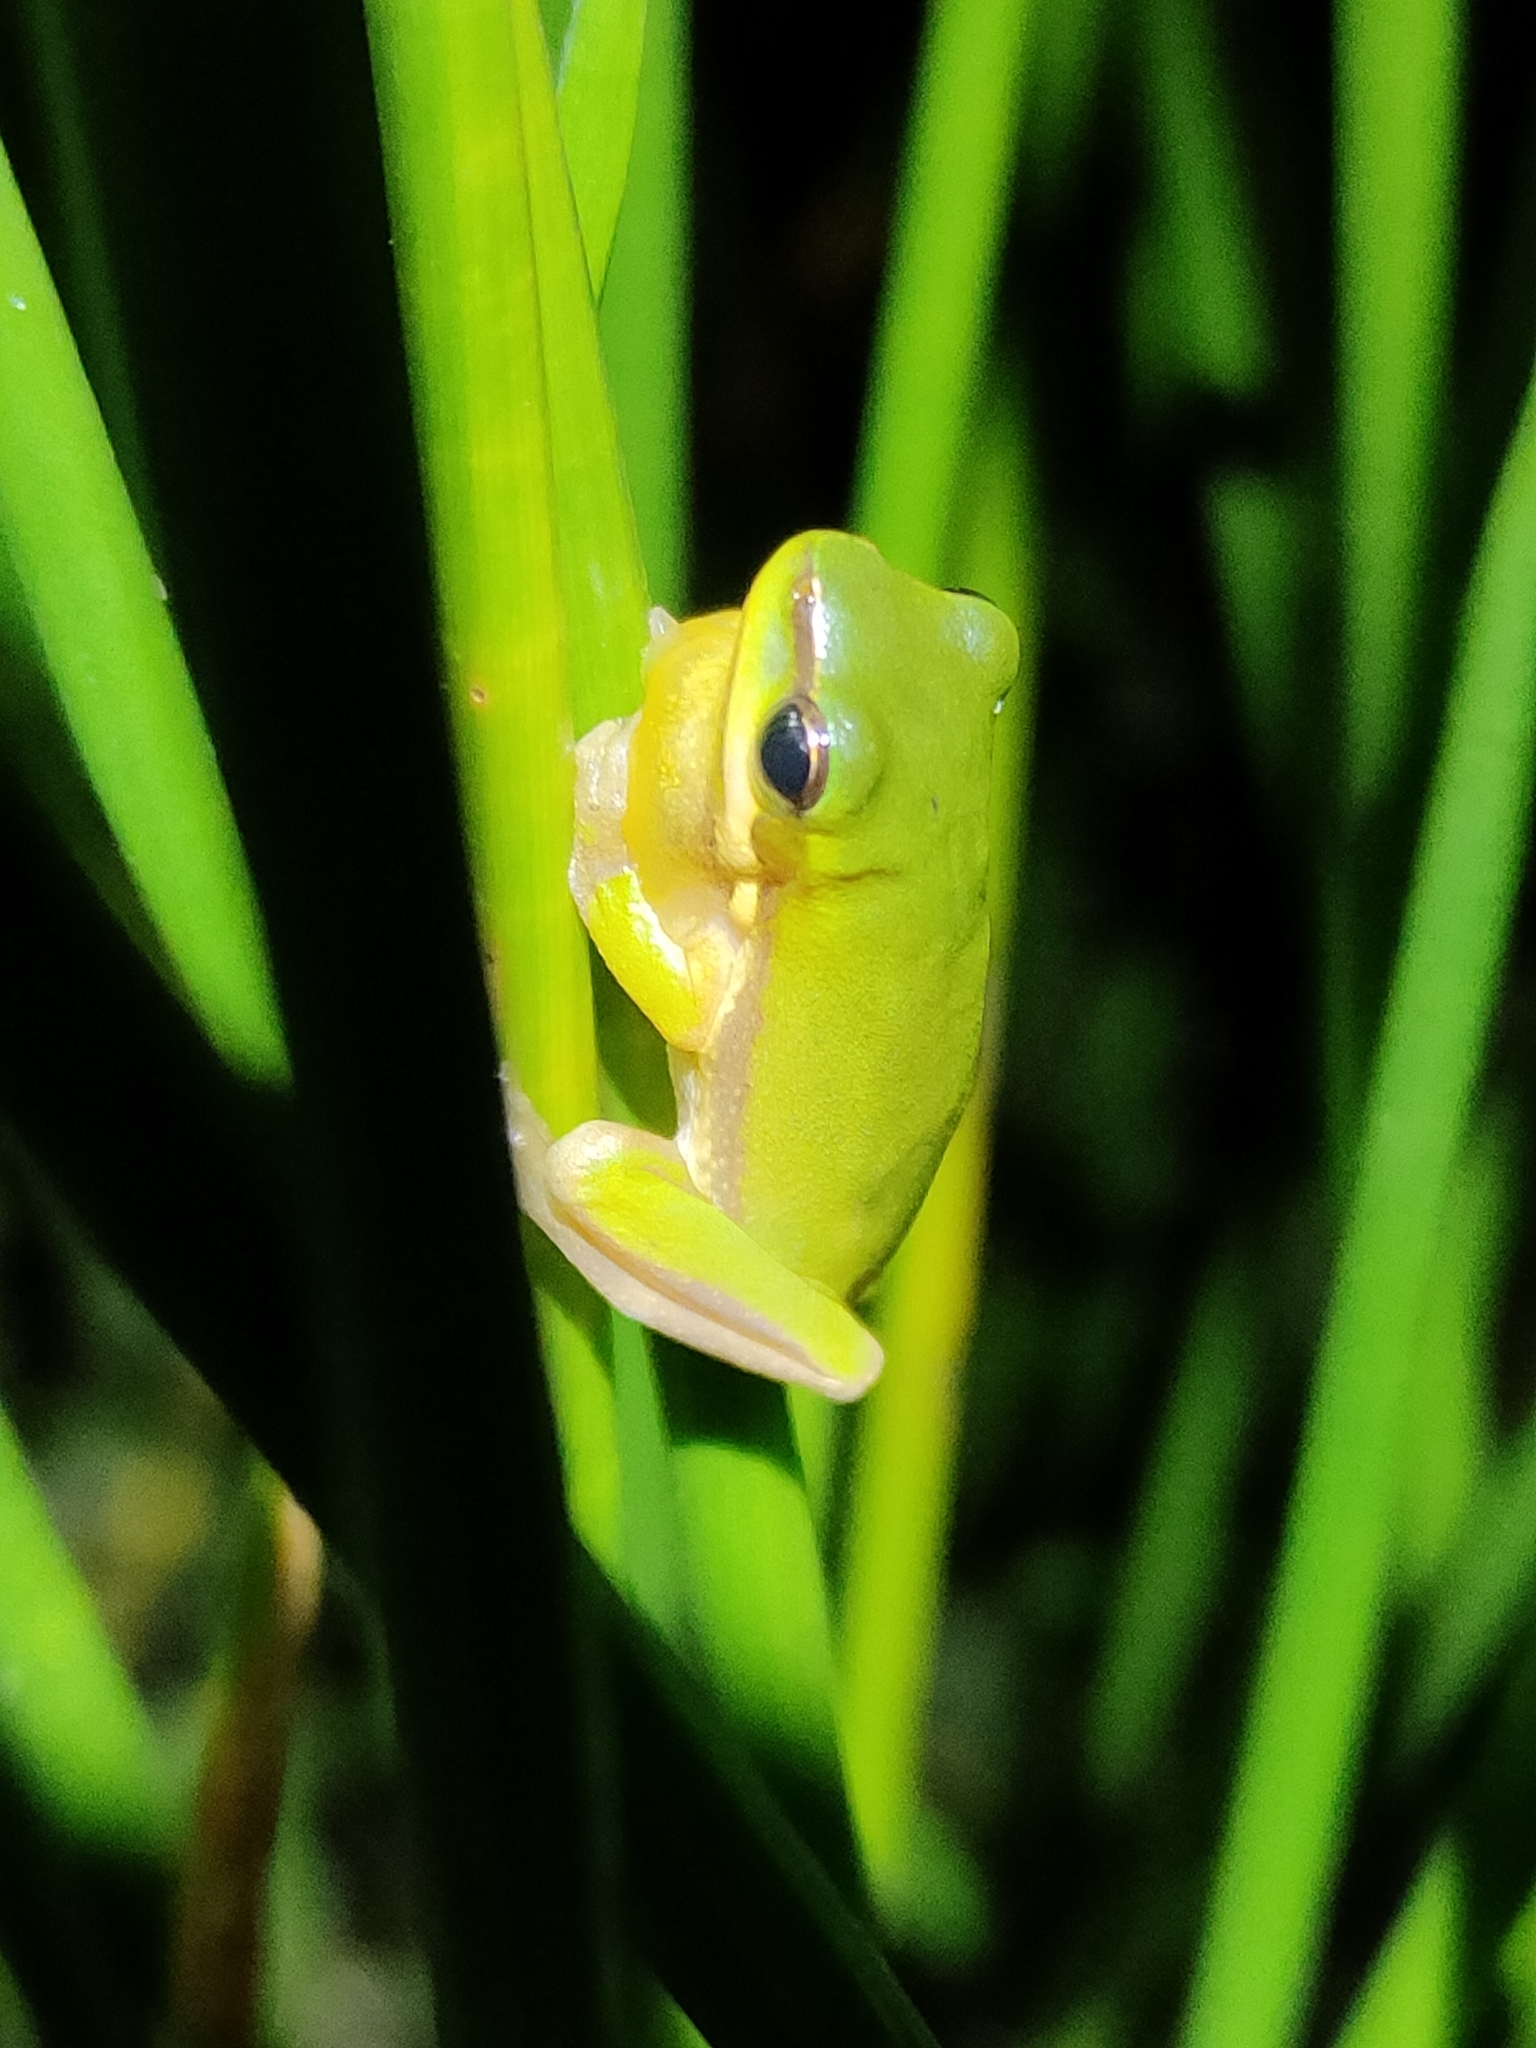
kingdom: Animalia
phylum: Chordata
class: Amphibia
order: Anura
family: Pelodryadidae
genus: Litoria
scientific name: Litoria fallax
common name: Eastern dwarf treefrog
